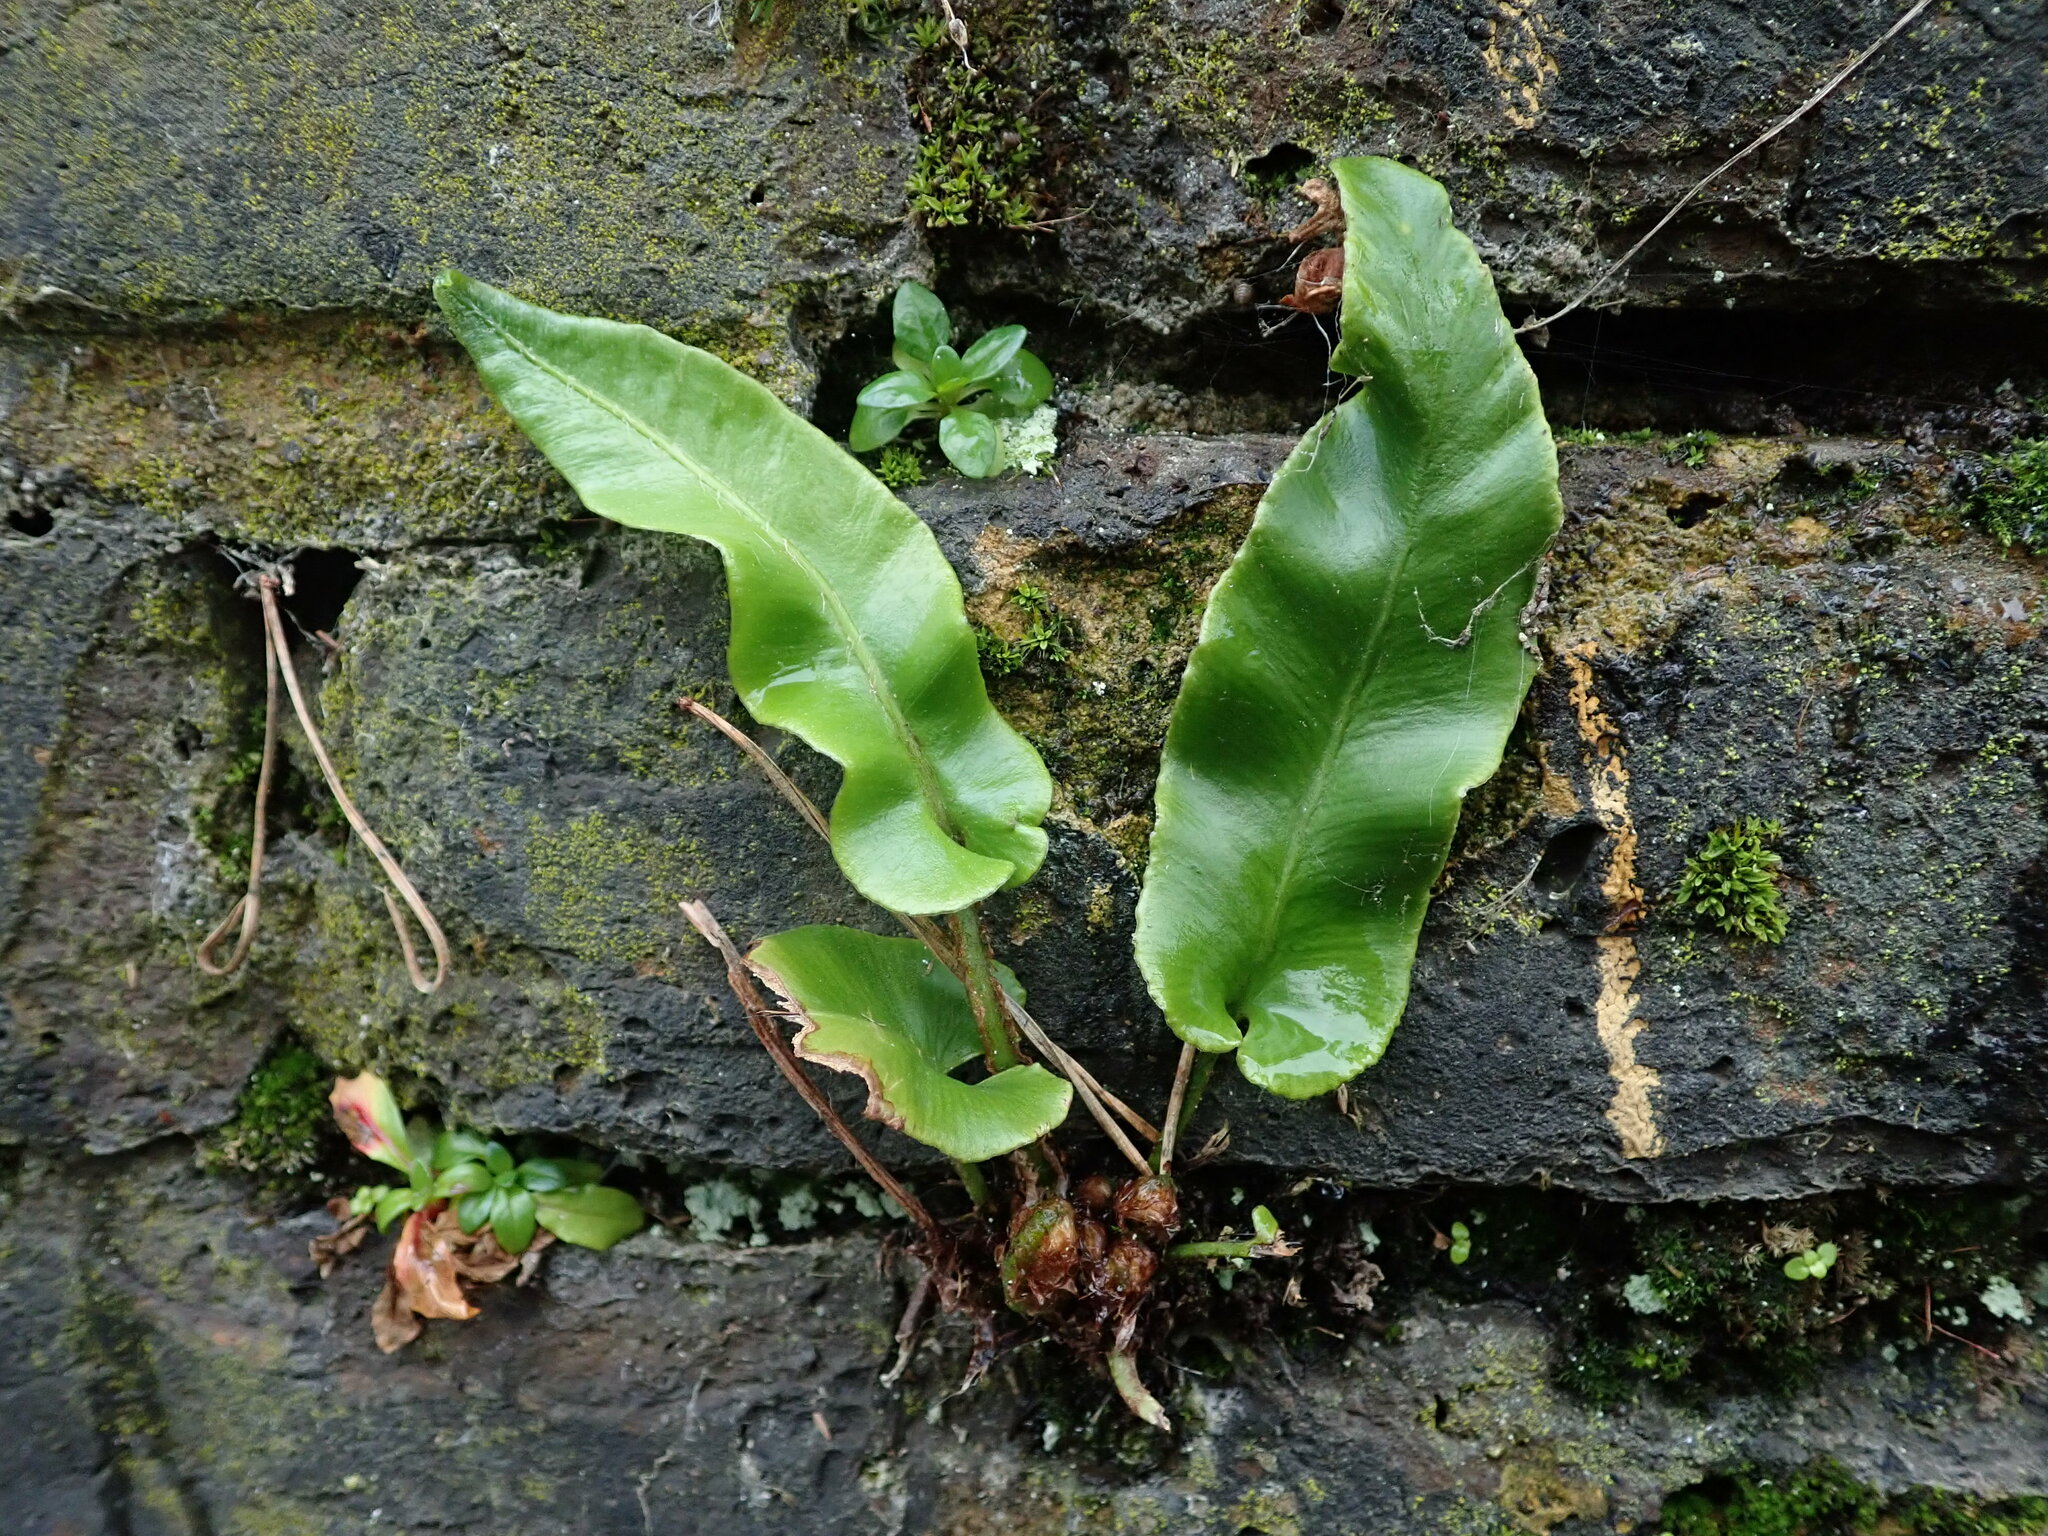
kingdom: Plantae
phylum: Tracheophyta
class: Polypodiopsida
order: Polypodiales
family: Aspleniaceae
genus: Asplenium
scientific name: Asplenium scolopendrium
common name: Hart's-tongue fern
